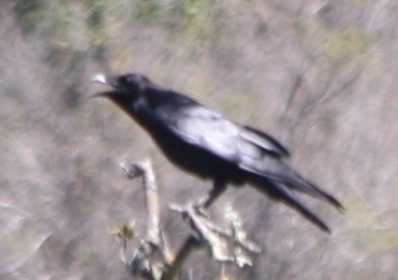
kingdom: Animalia
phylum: Chordata
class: Aves
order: Passeriformes
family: Corvidae
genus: Corvus
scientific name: Corvus corax
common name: Common raven
